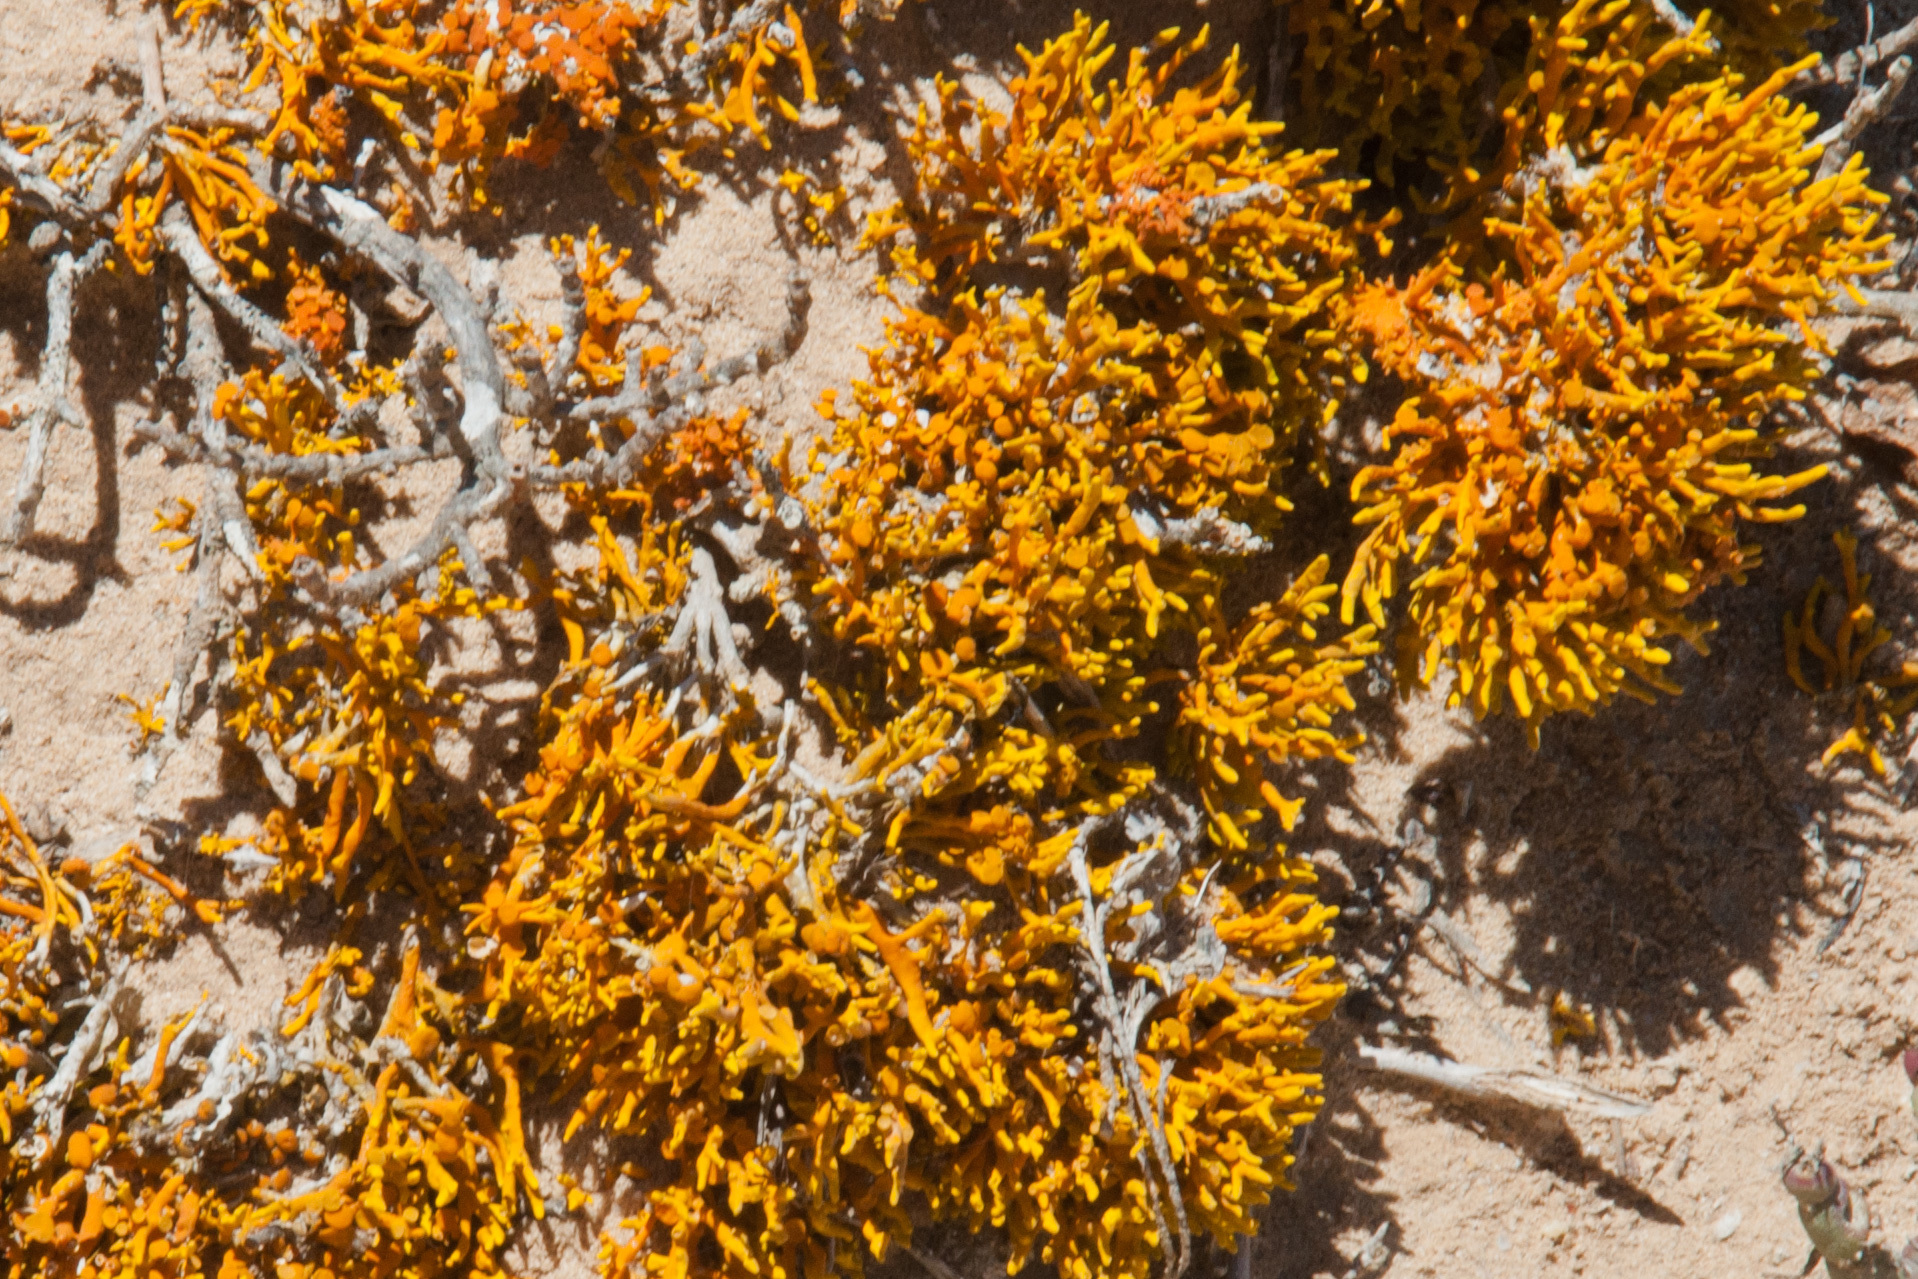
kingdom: Fungi
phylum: Ascomycota
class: Lecanoromycetes
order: Teloschistales
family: Teloschistaceae
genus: Dufourea
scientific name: Dufourea flammea
